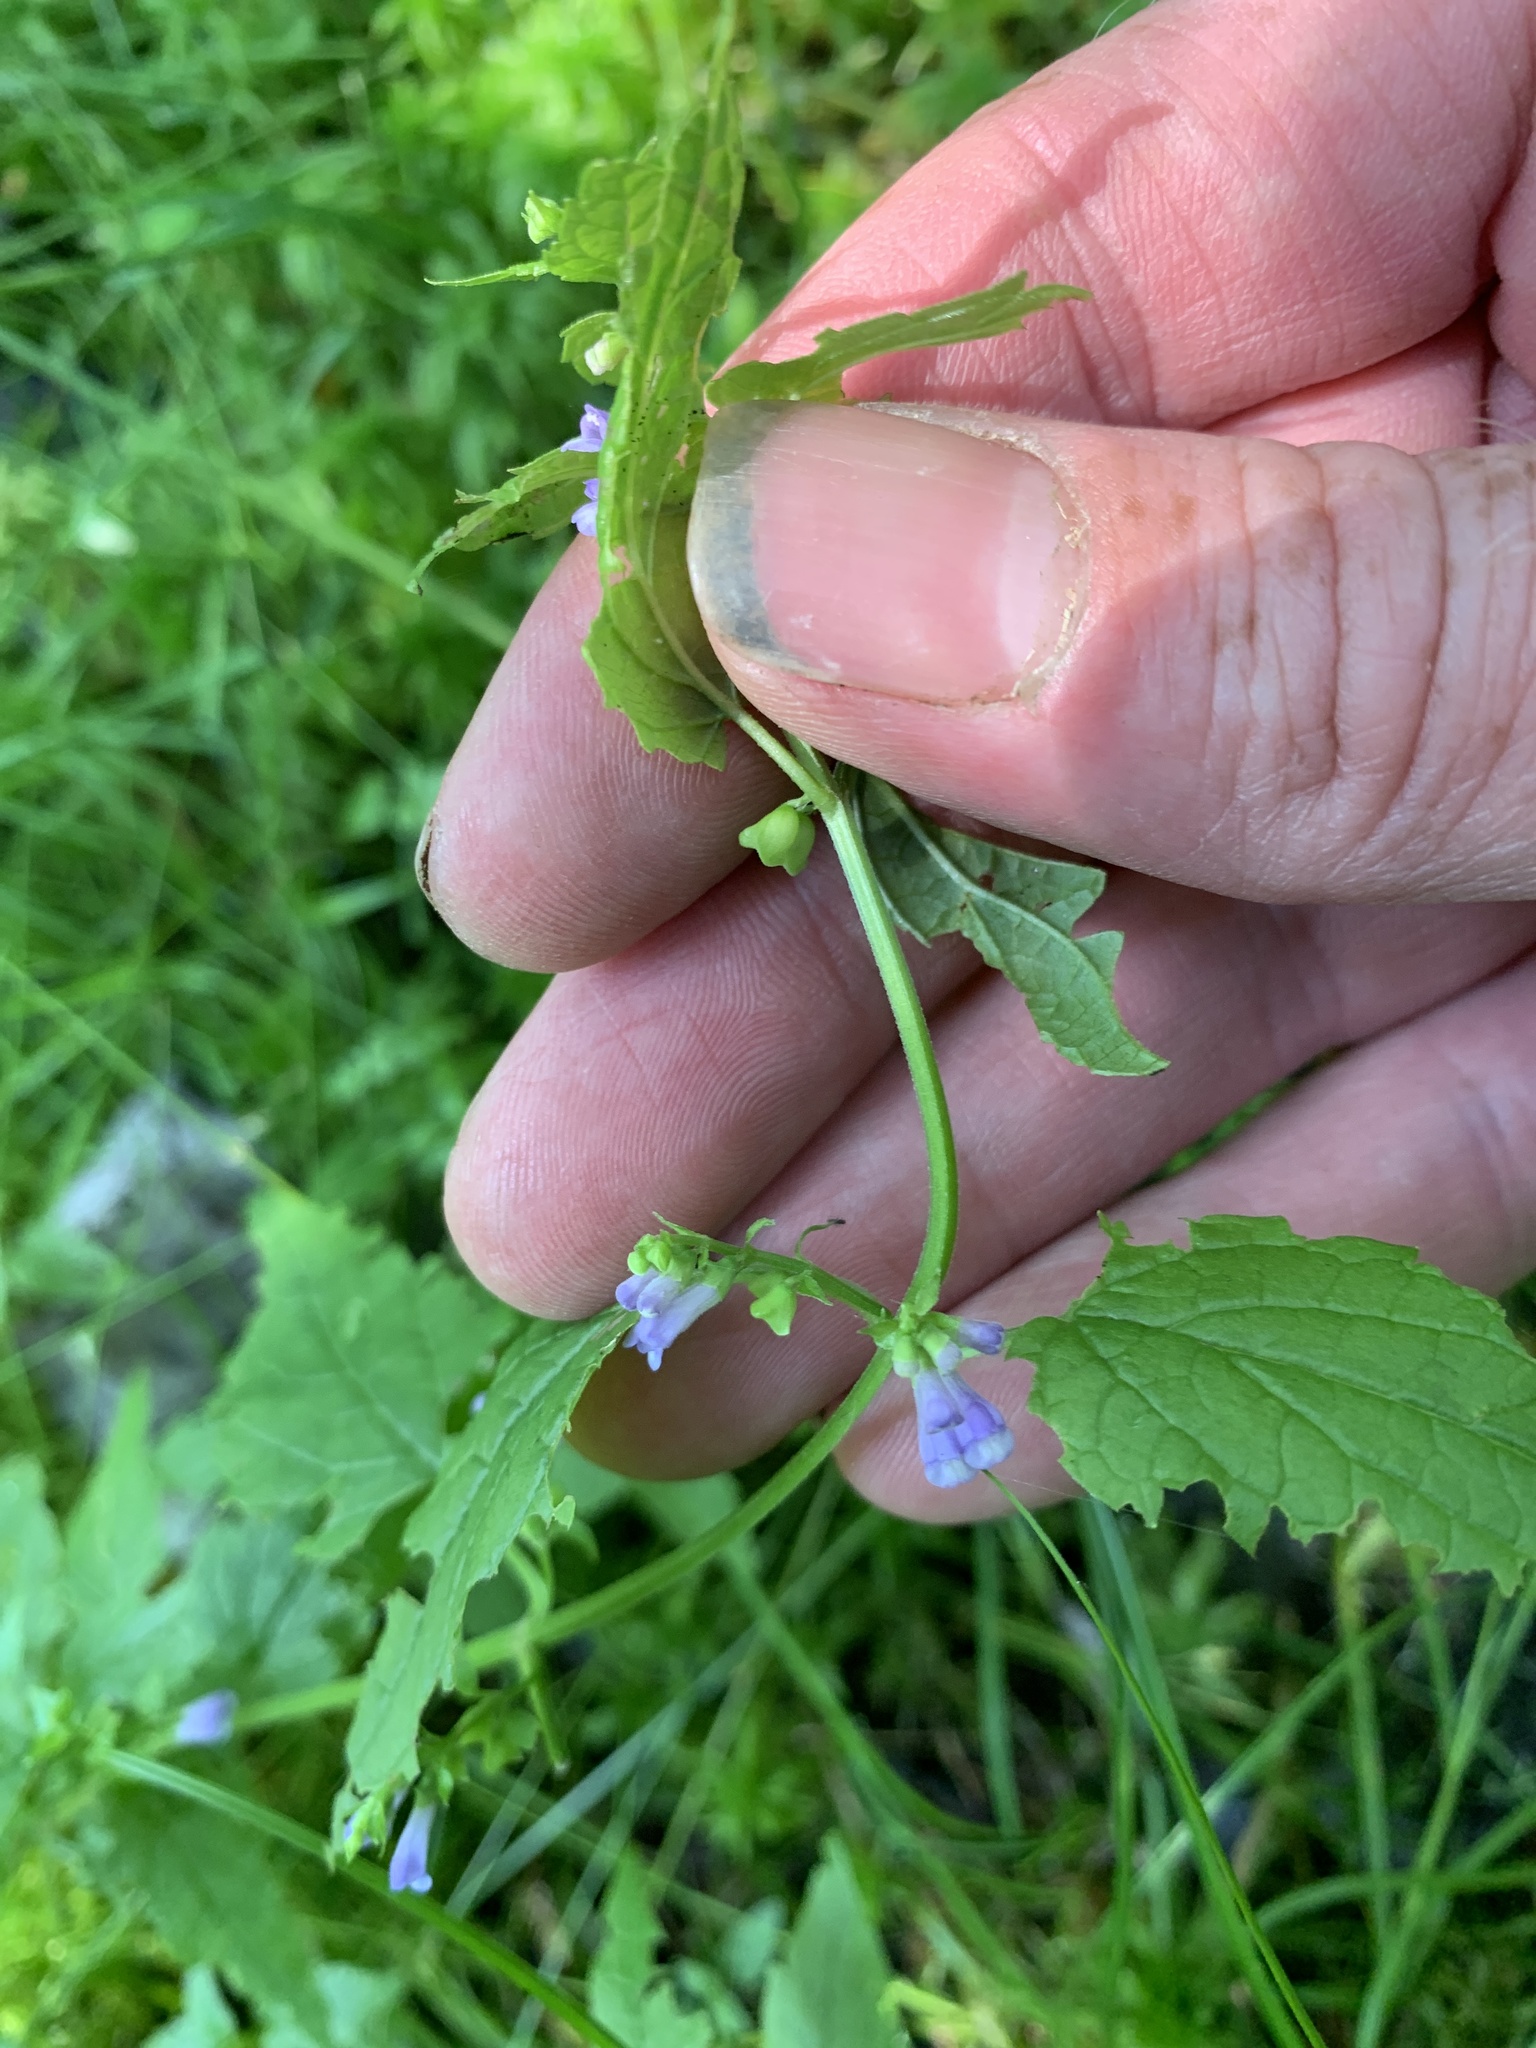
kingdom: Plantae
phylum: Tracheophyta
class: Magnoliopsida
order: Lamiales
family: Lamiaceae
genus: Scutellaria
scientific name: Scutellaria lateriflora
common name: Blue skullcap
